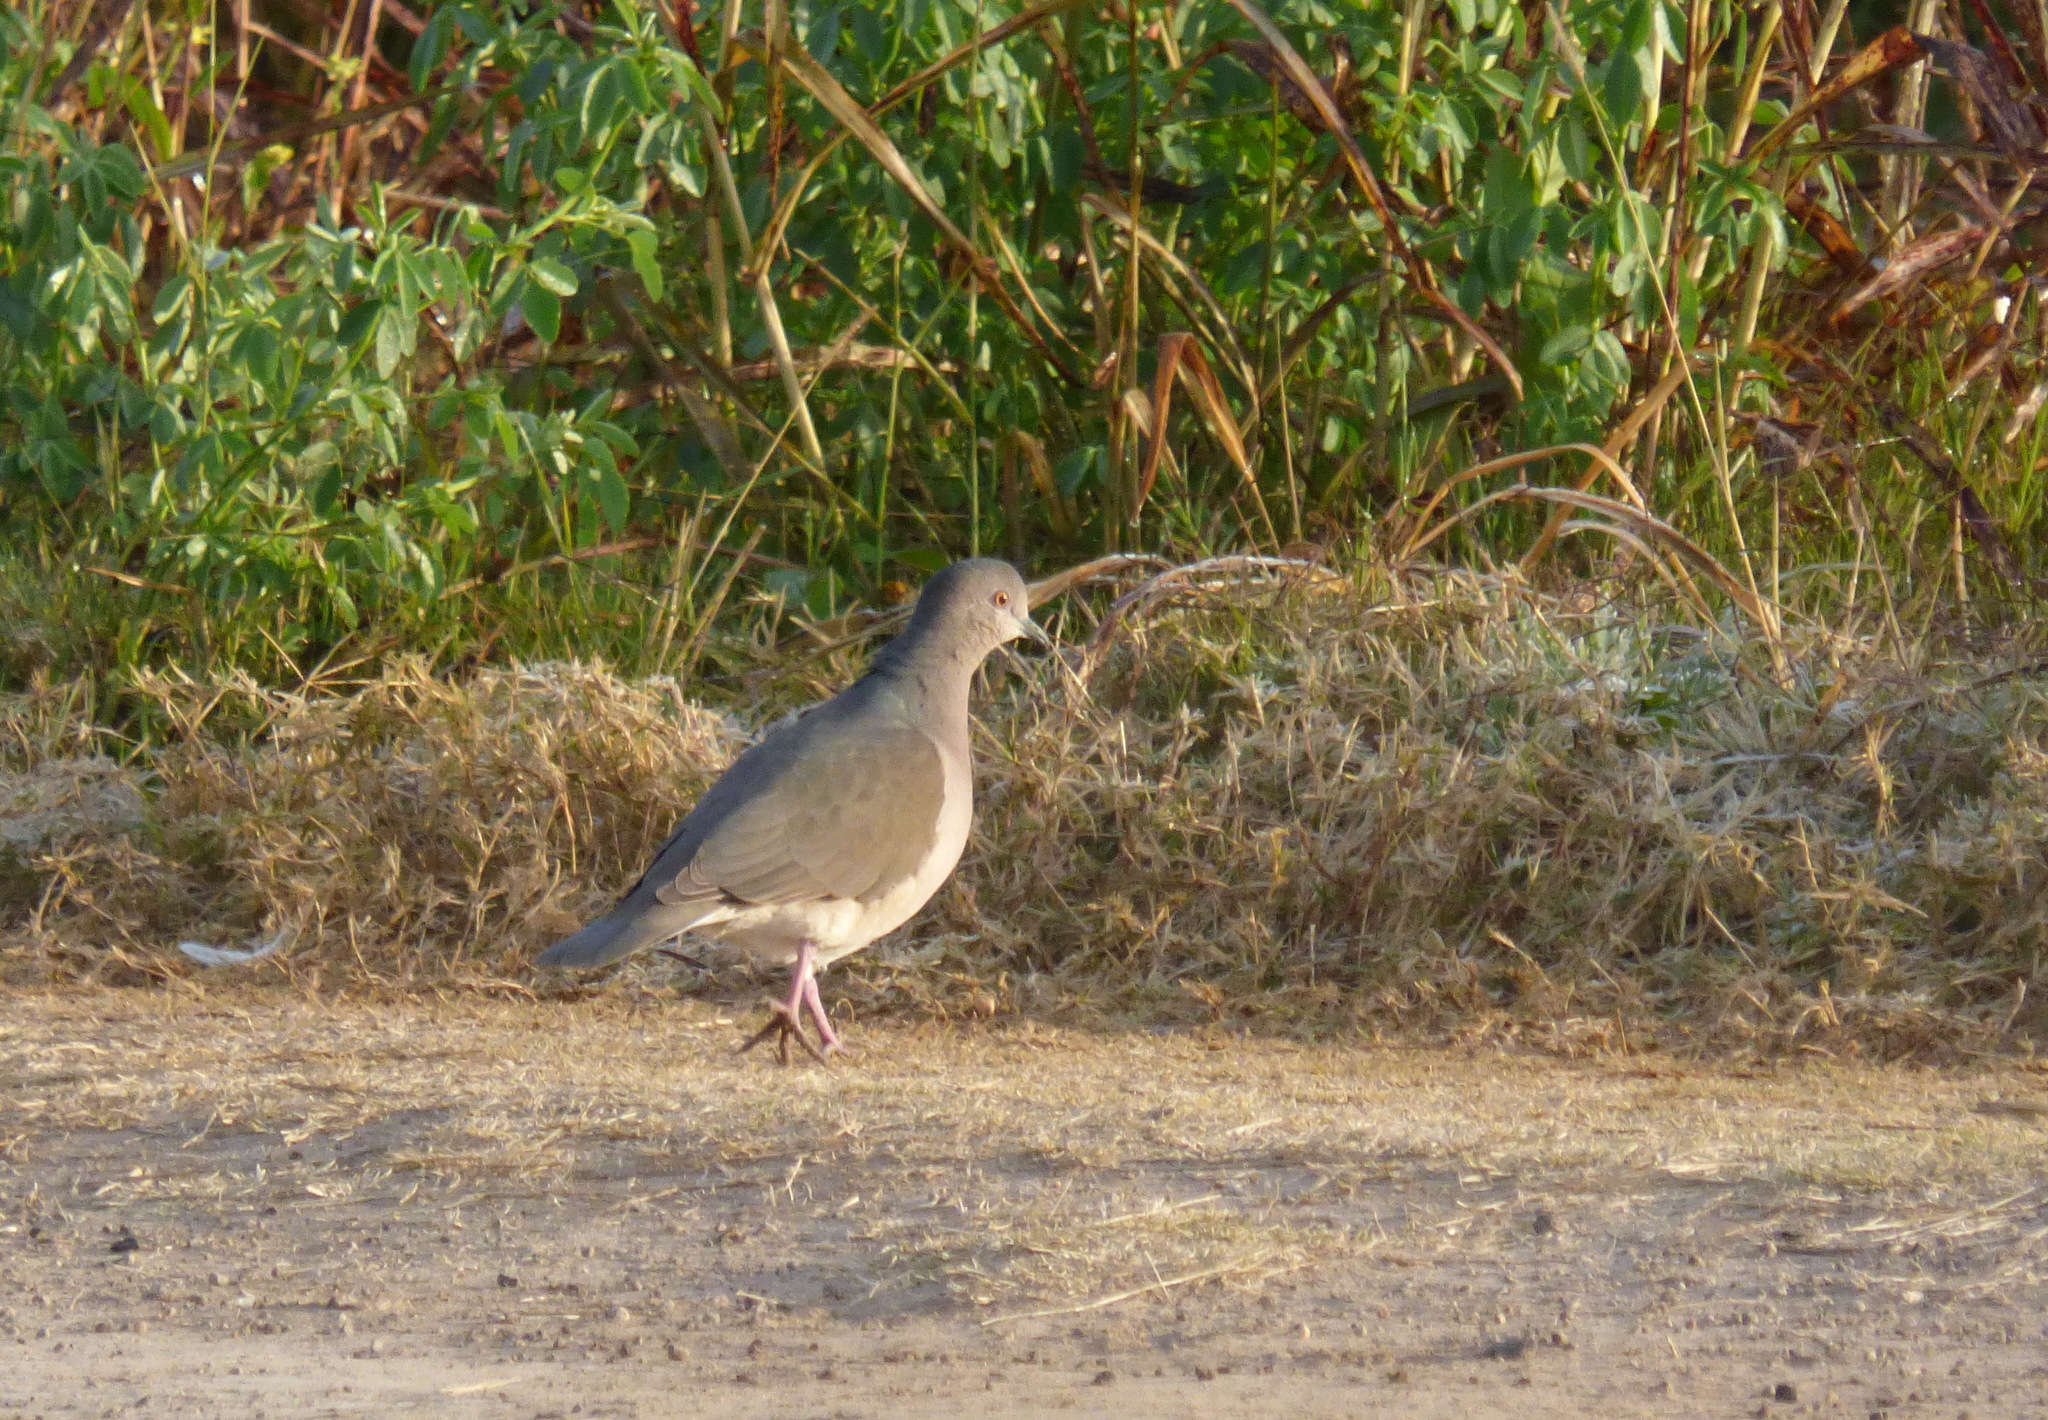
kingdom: Animalia
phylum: Chordata
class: Aves
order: Columbiformes
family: Columbidae
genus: Leptotila
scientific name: Leptotila verreauxi
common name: White-tipped dove
